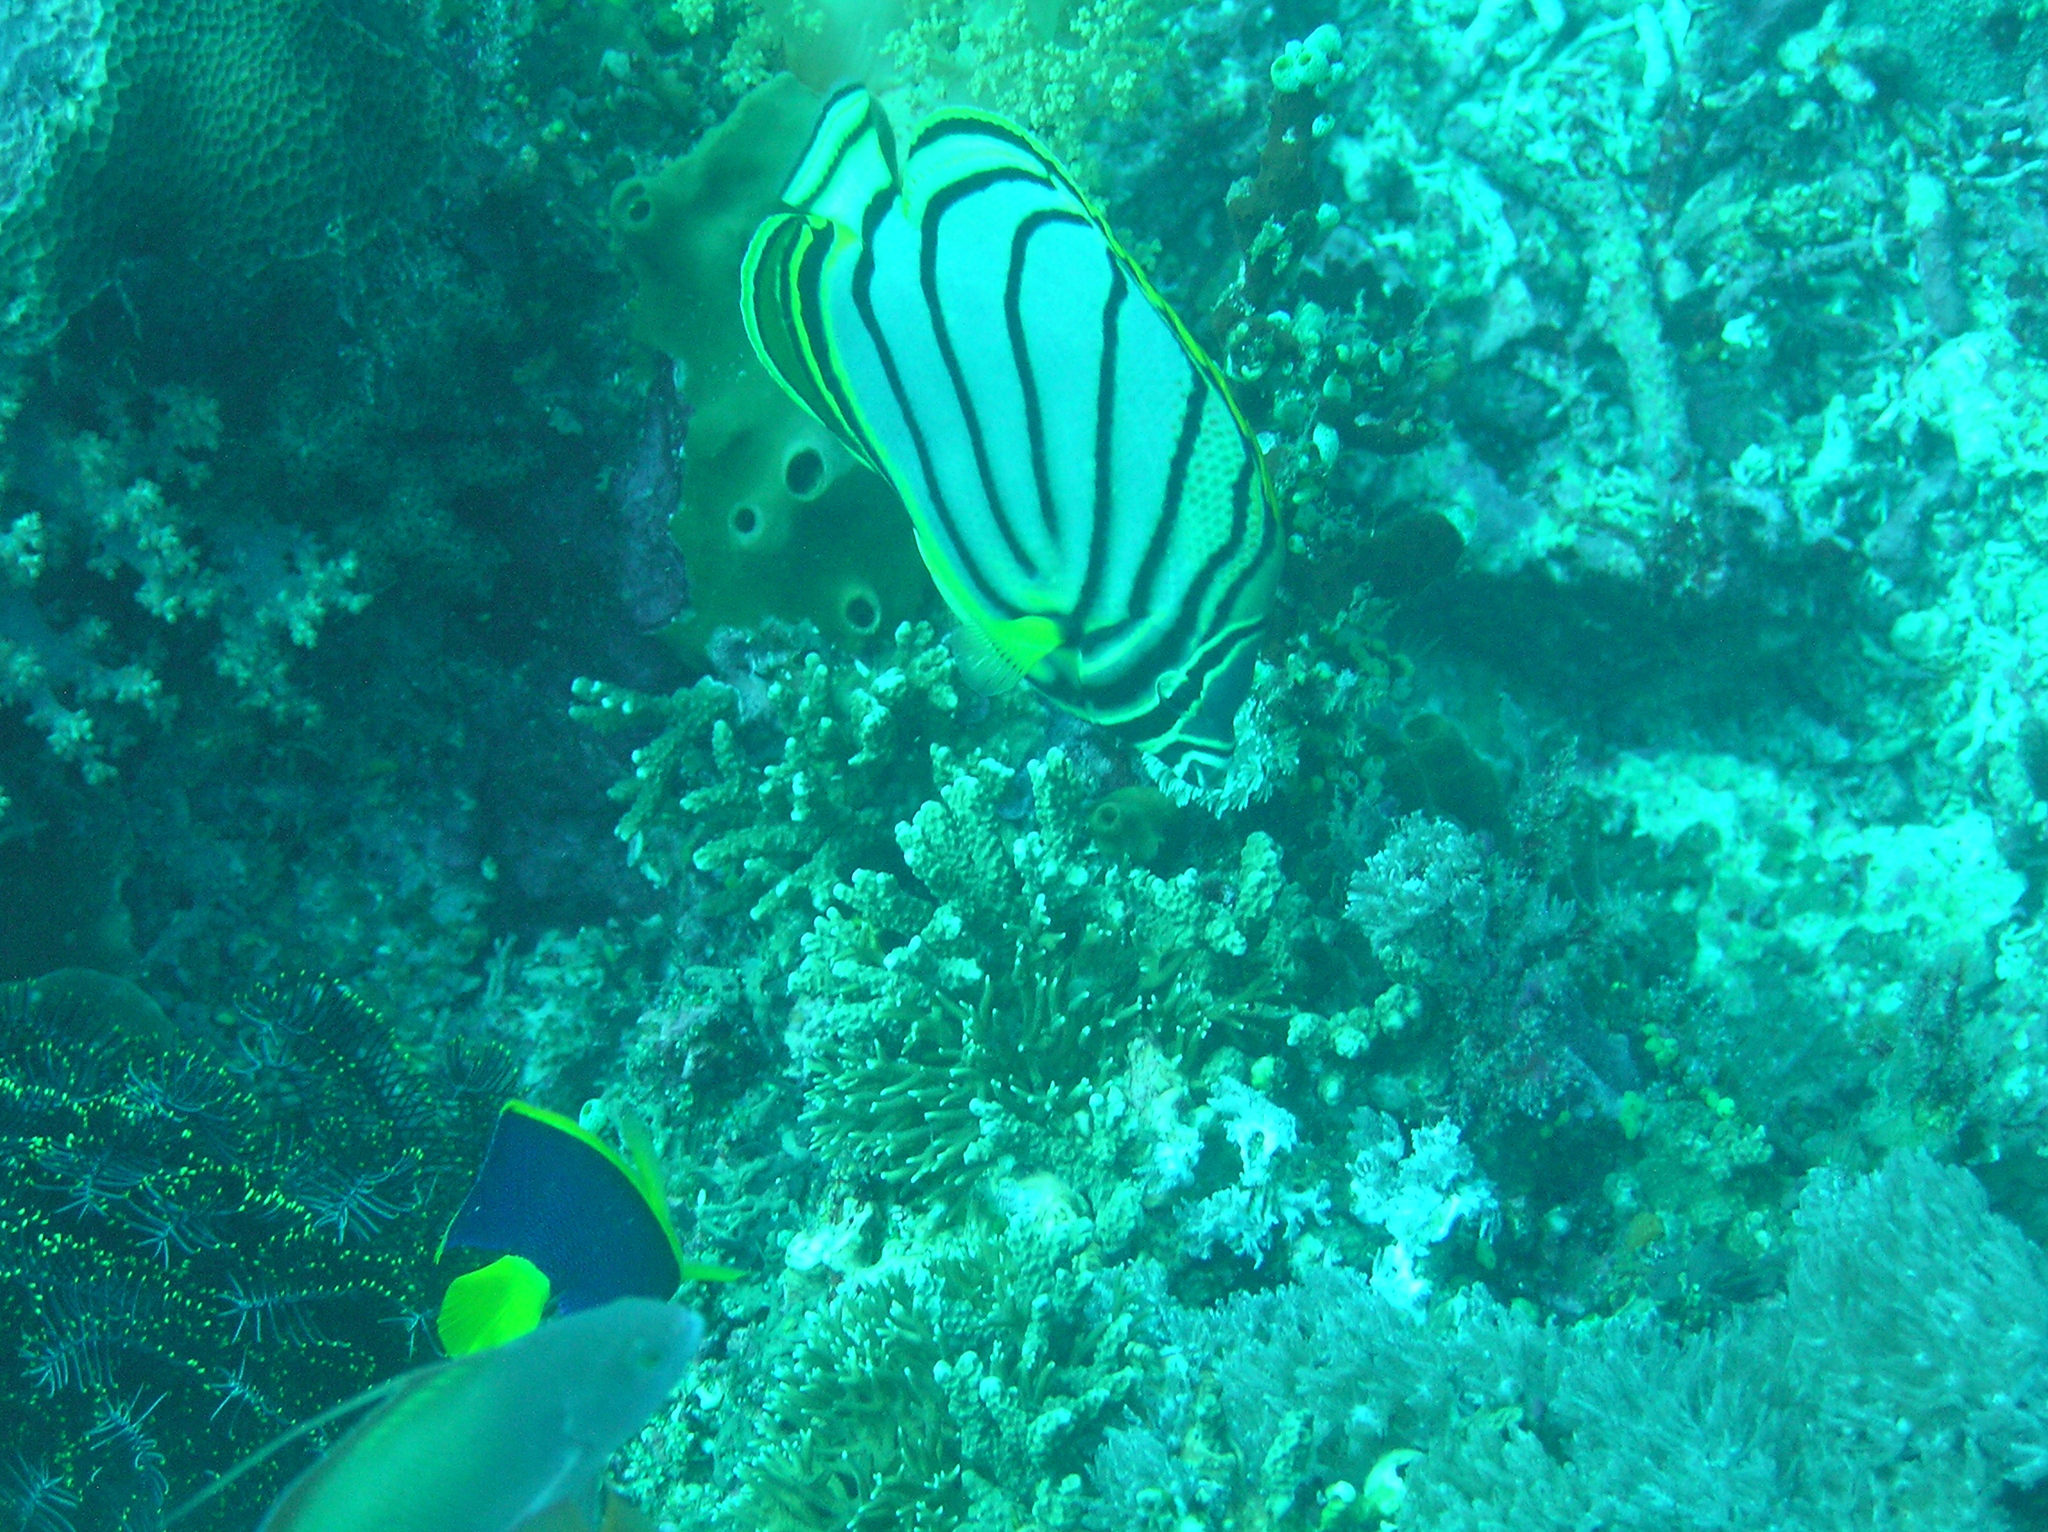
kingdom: Animalia
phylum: Chordata
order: Perciformes
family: Chaetodontidae
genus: Chaetodon
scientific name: Chaetodon meyeri
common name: Meyer's butterflyfish
